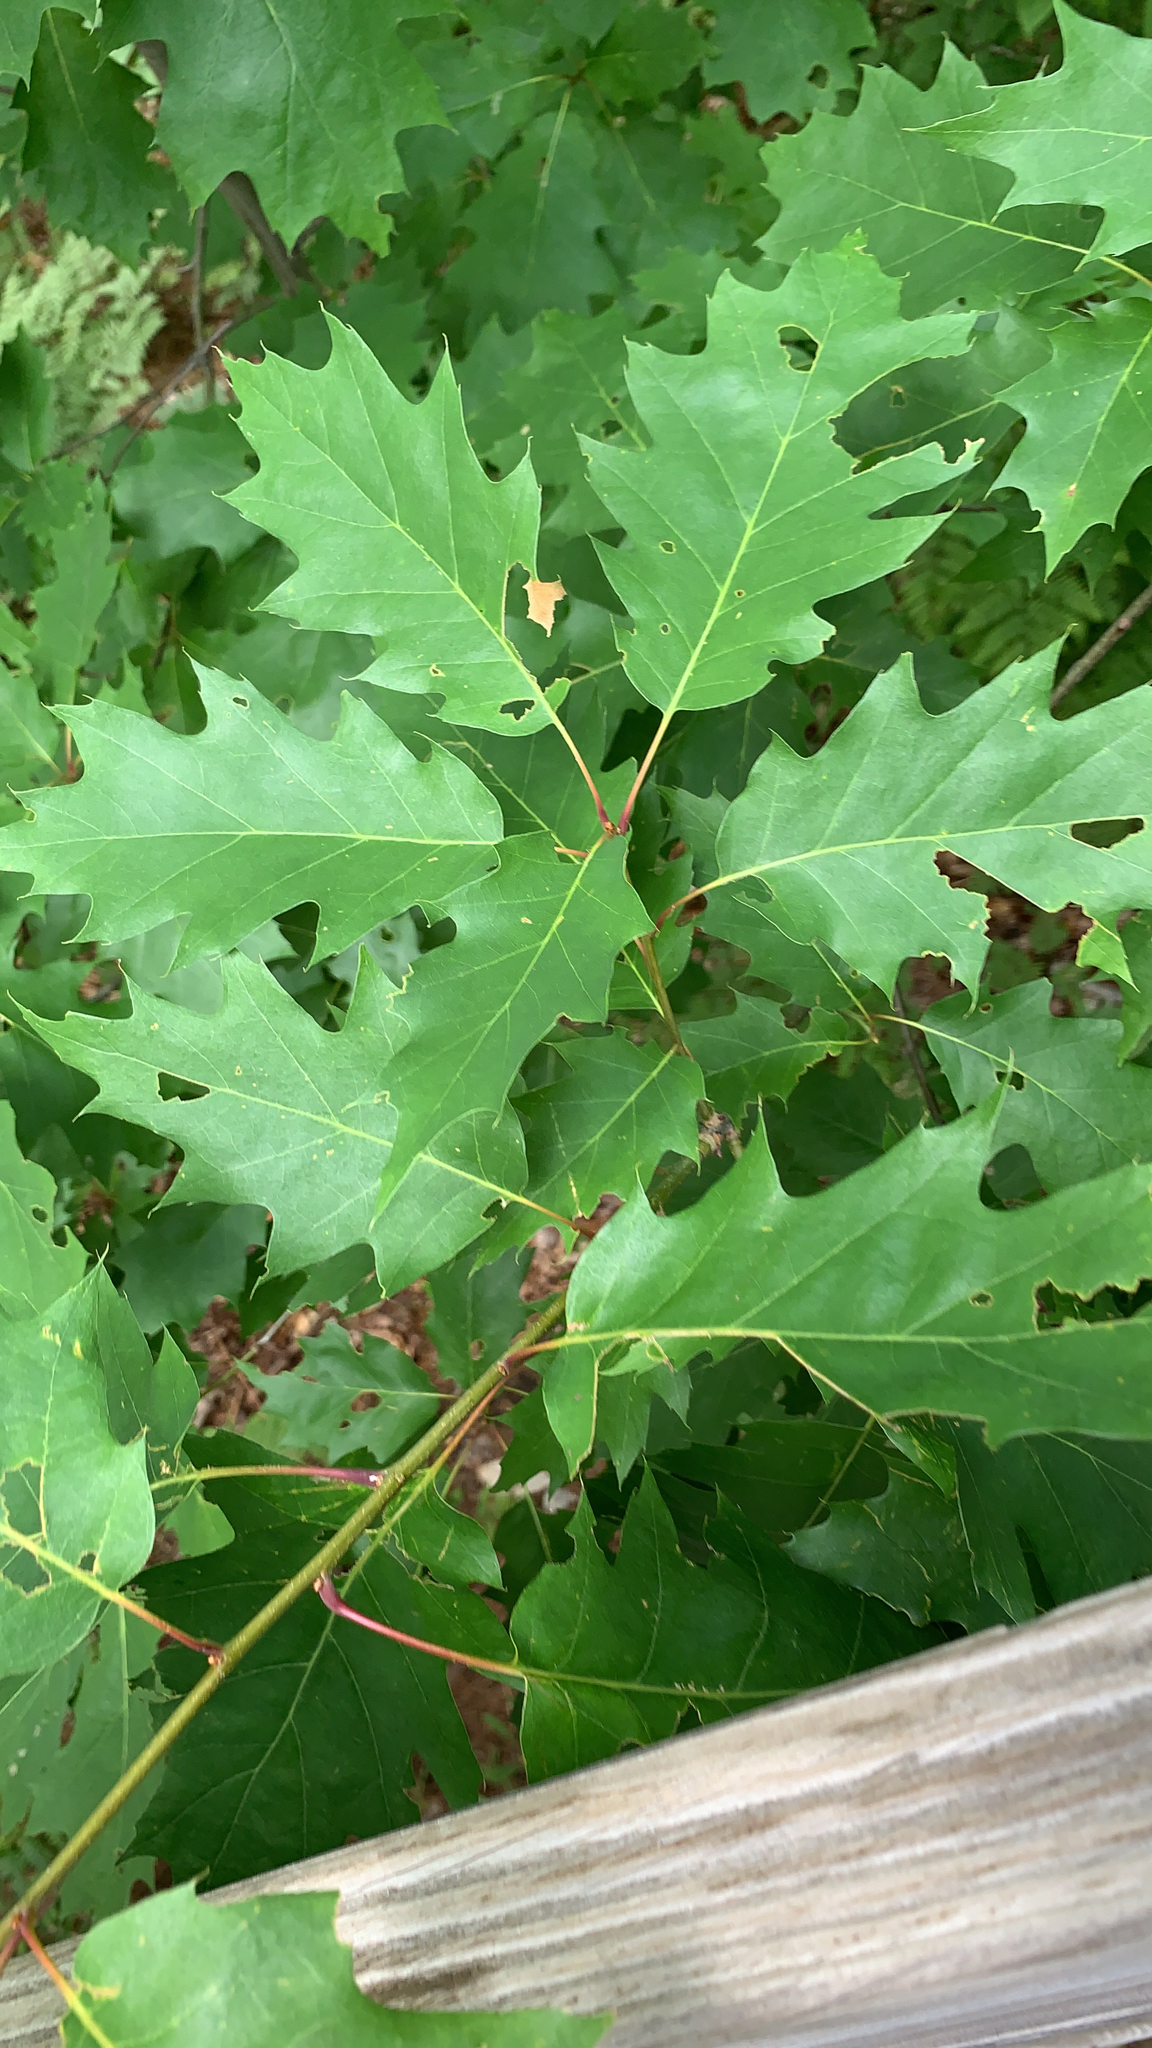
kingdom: Plantae
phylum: Tracheophyta
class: Magnoliopsida
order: Fagales
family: Fagaceae
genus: Quercus
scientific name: Quercus rubra
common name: Red oak
